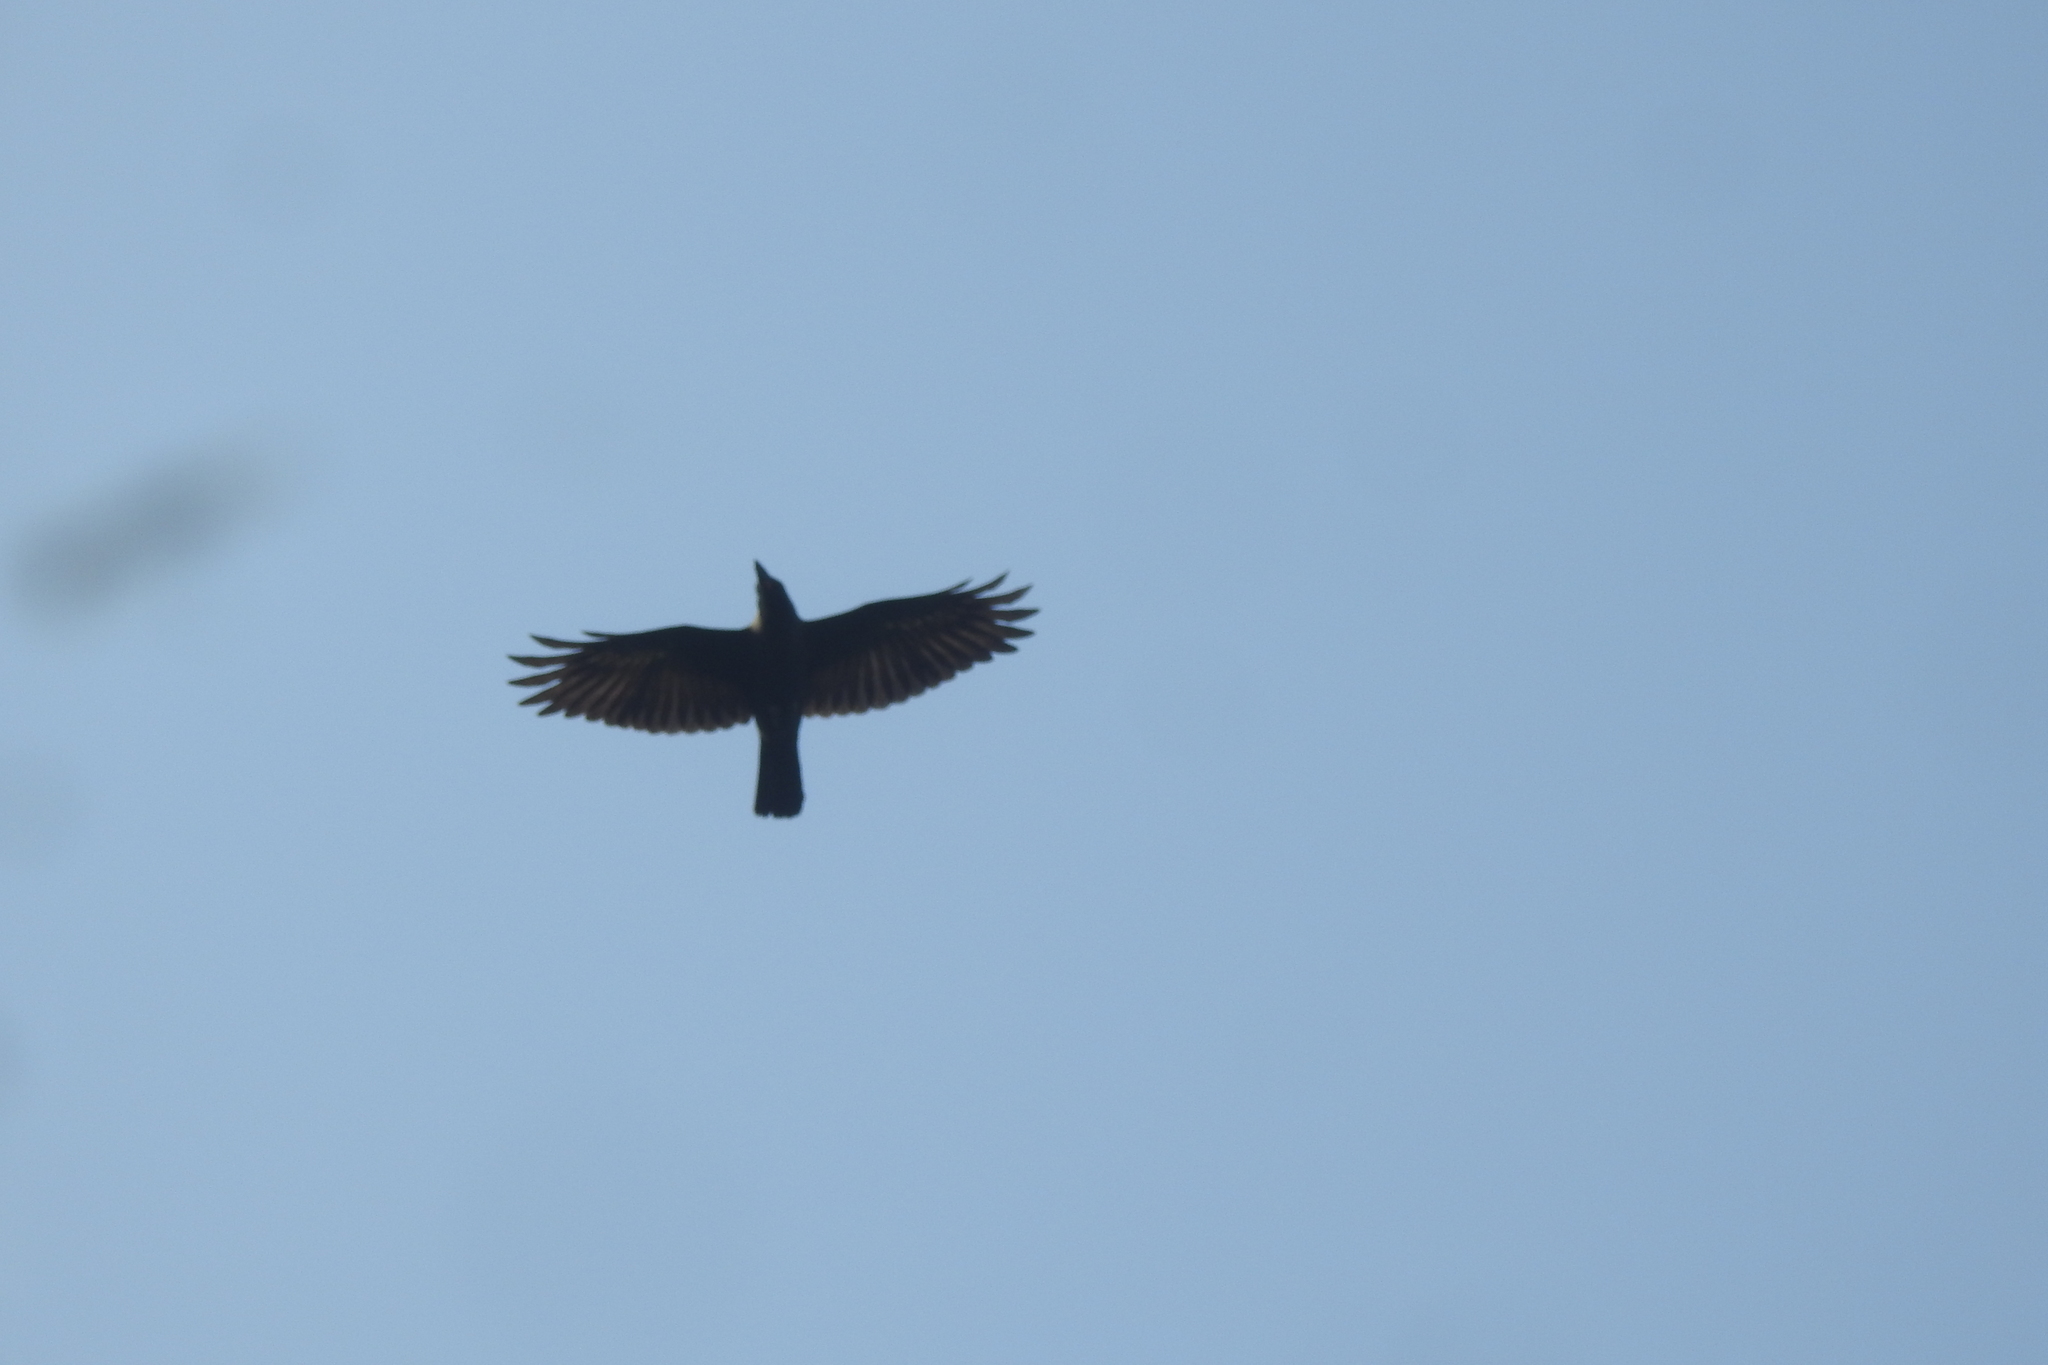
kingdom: Animalia
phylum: Chordata
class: Aves
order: Passeriformes
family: Corvidae
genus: Corvus
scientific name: Corvus splendens
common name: House crow
